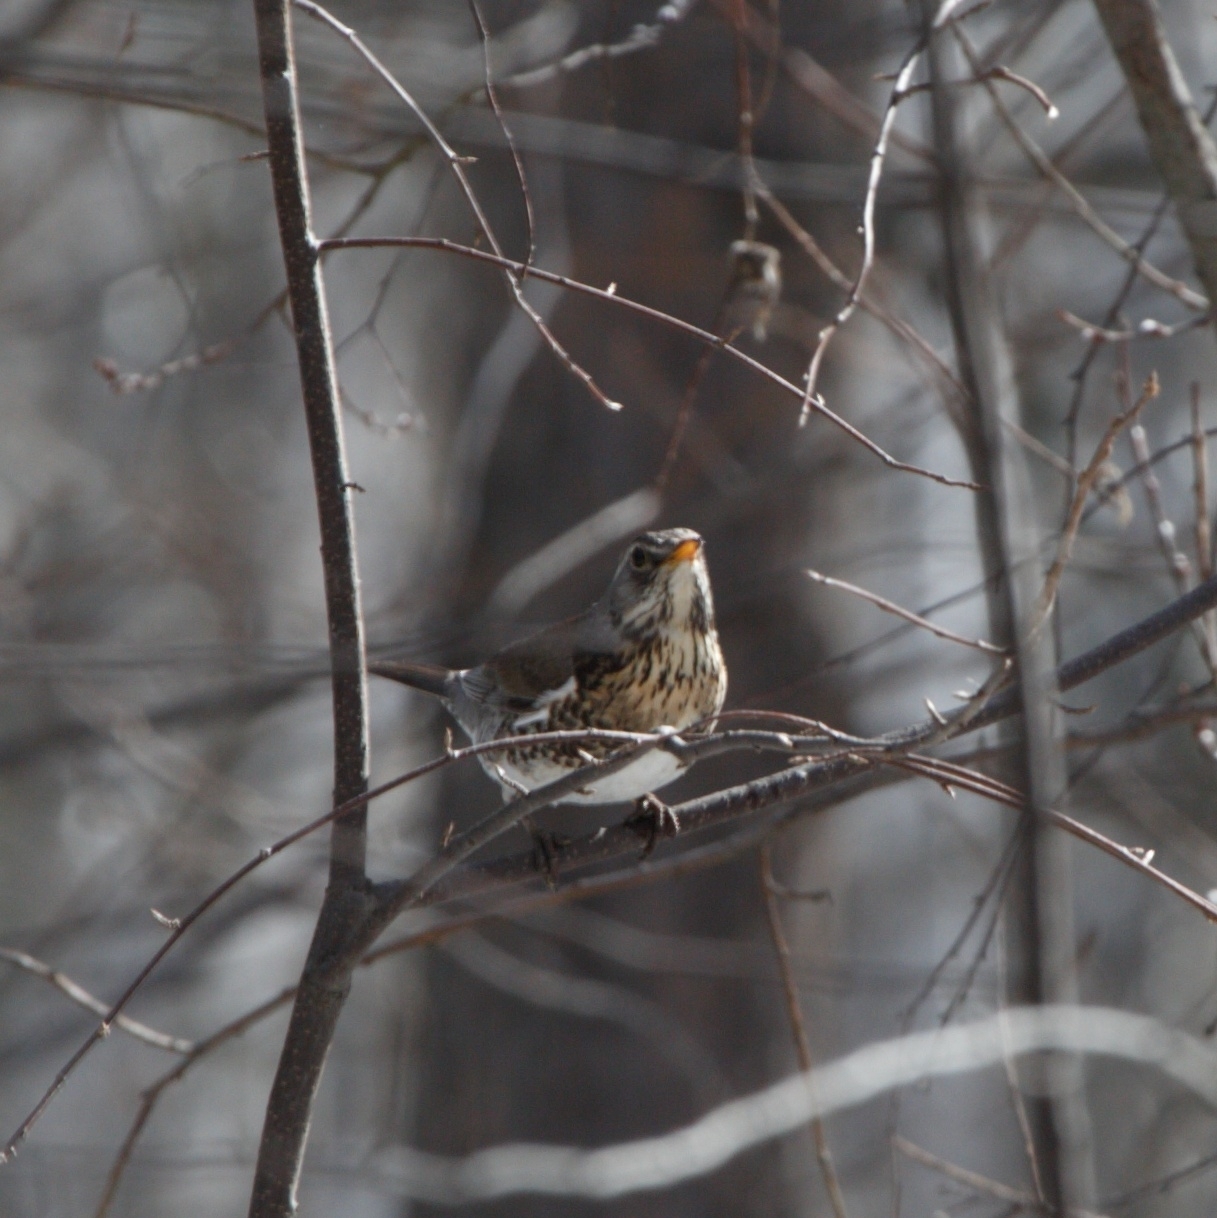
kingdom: Animalia
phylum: Chordata
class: Aves
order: Passeriformes
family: Turdidae
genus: Turdus
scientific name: Turdus pilaris
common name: Fieldfare
